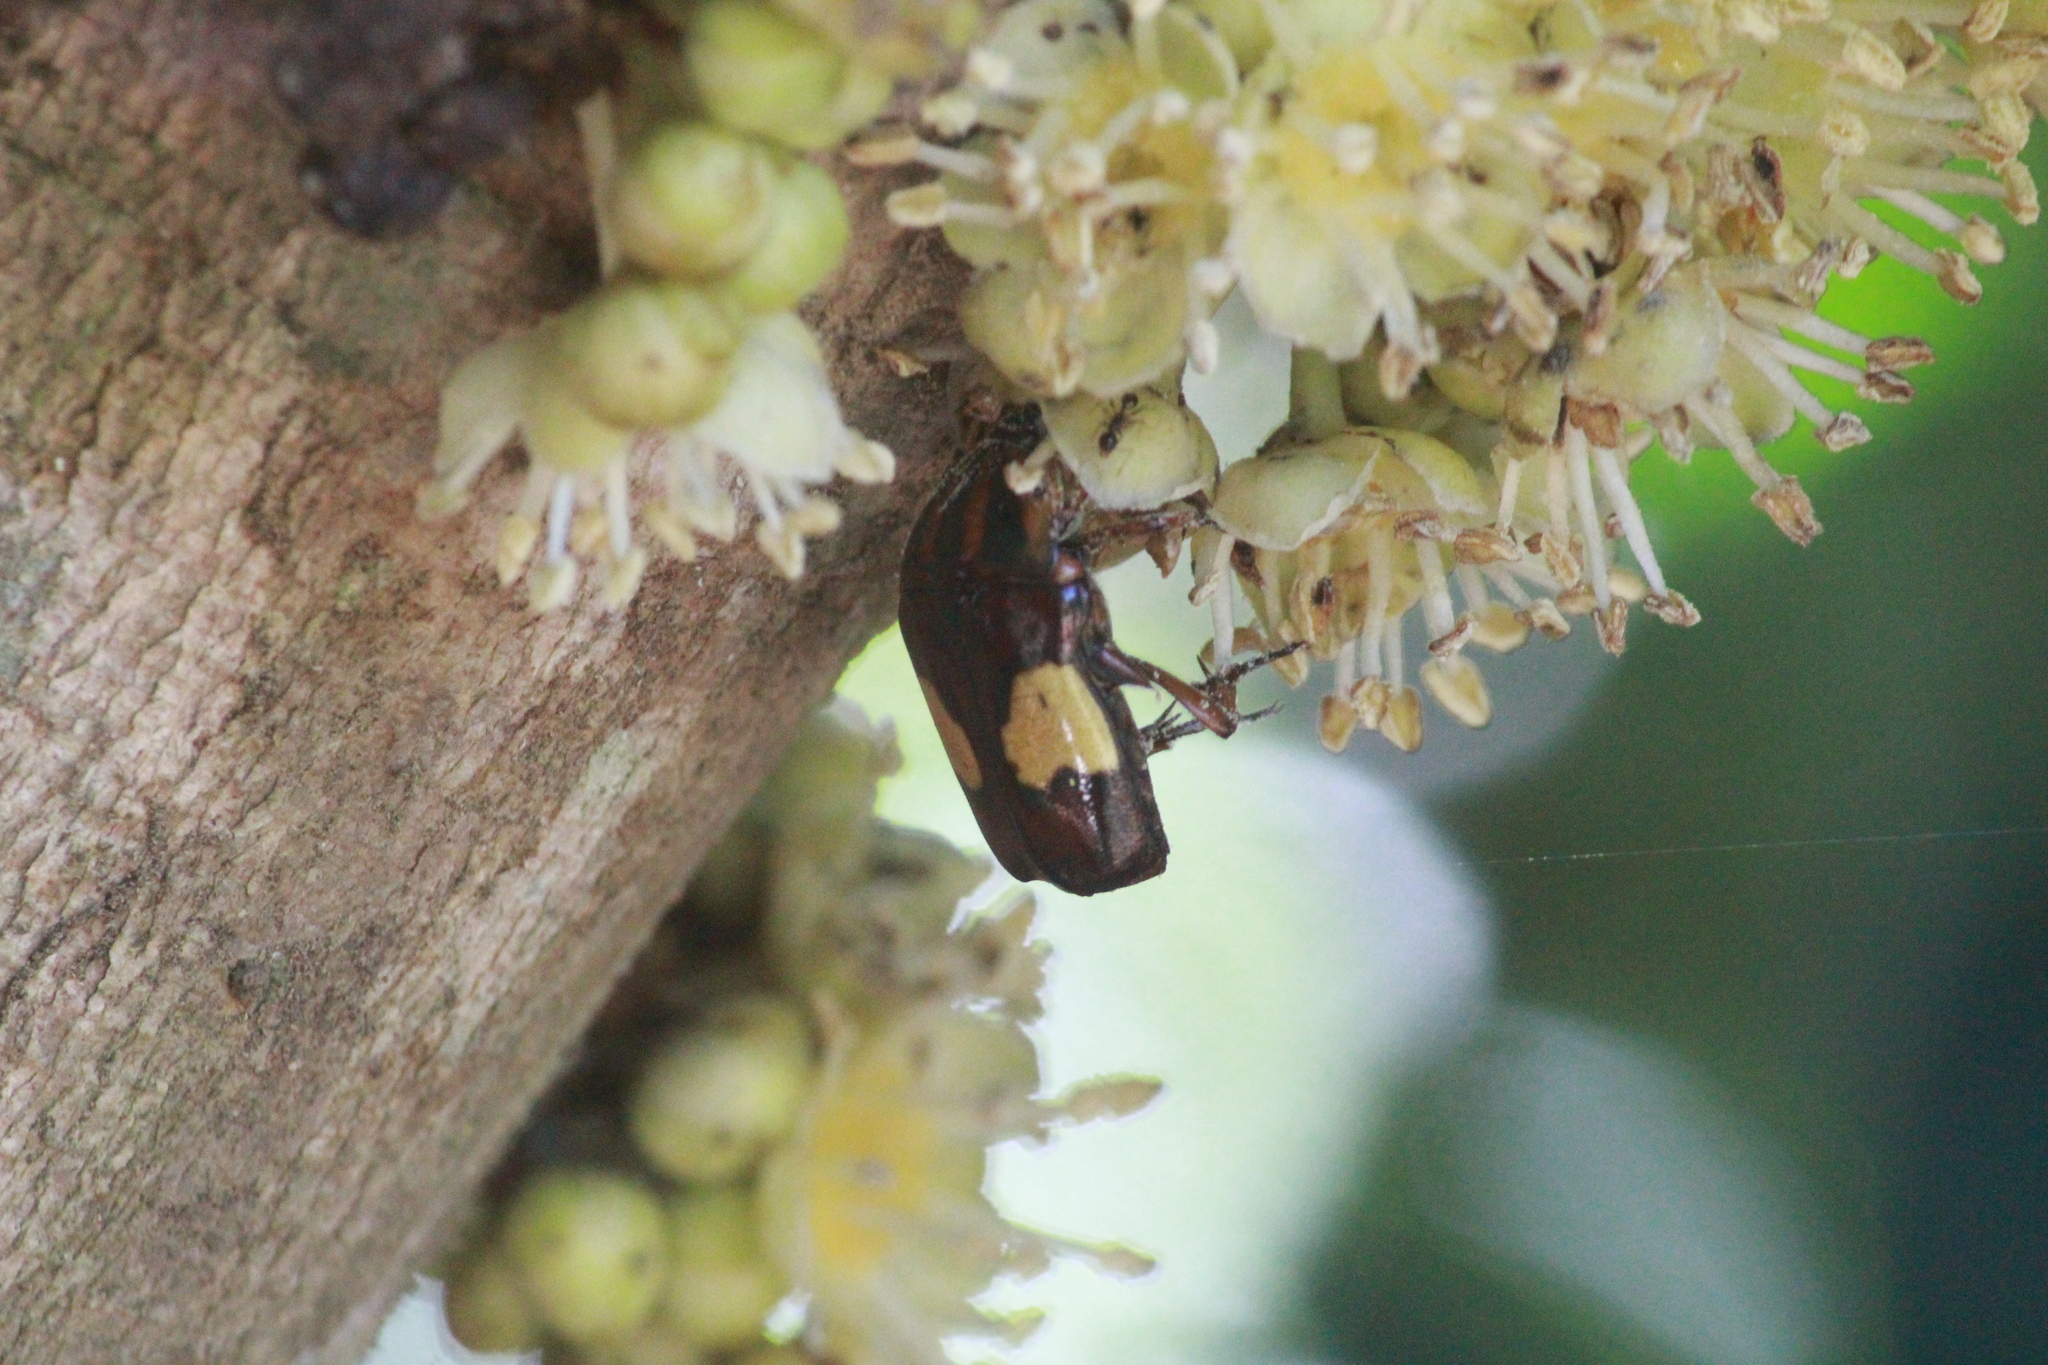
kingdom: Animalia
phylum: Arthropoda
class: Insecta
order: Coleoptera
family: Scarabaeidae
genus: Pedinorrhina
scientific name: Pedinorrhina
